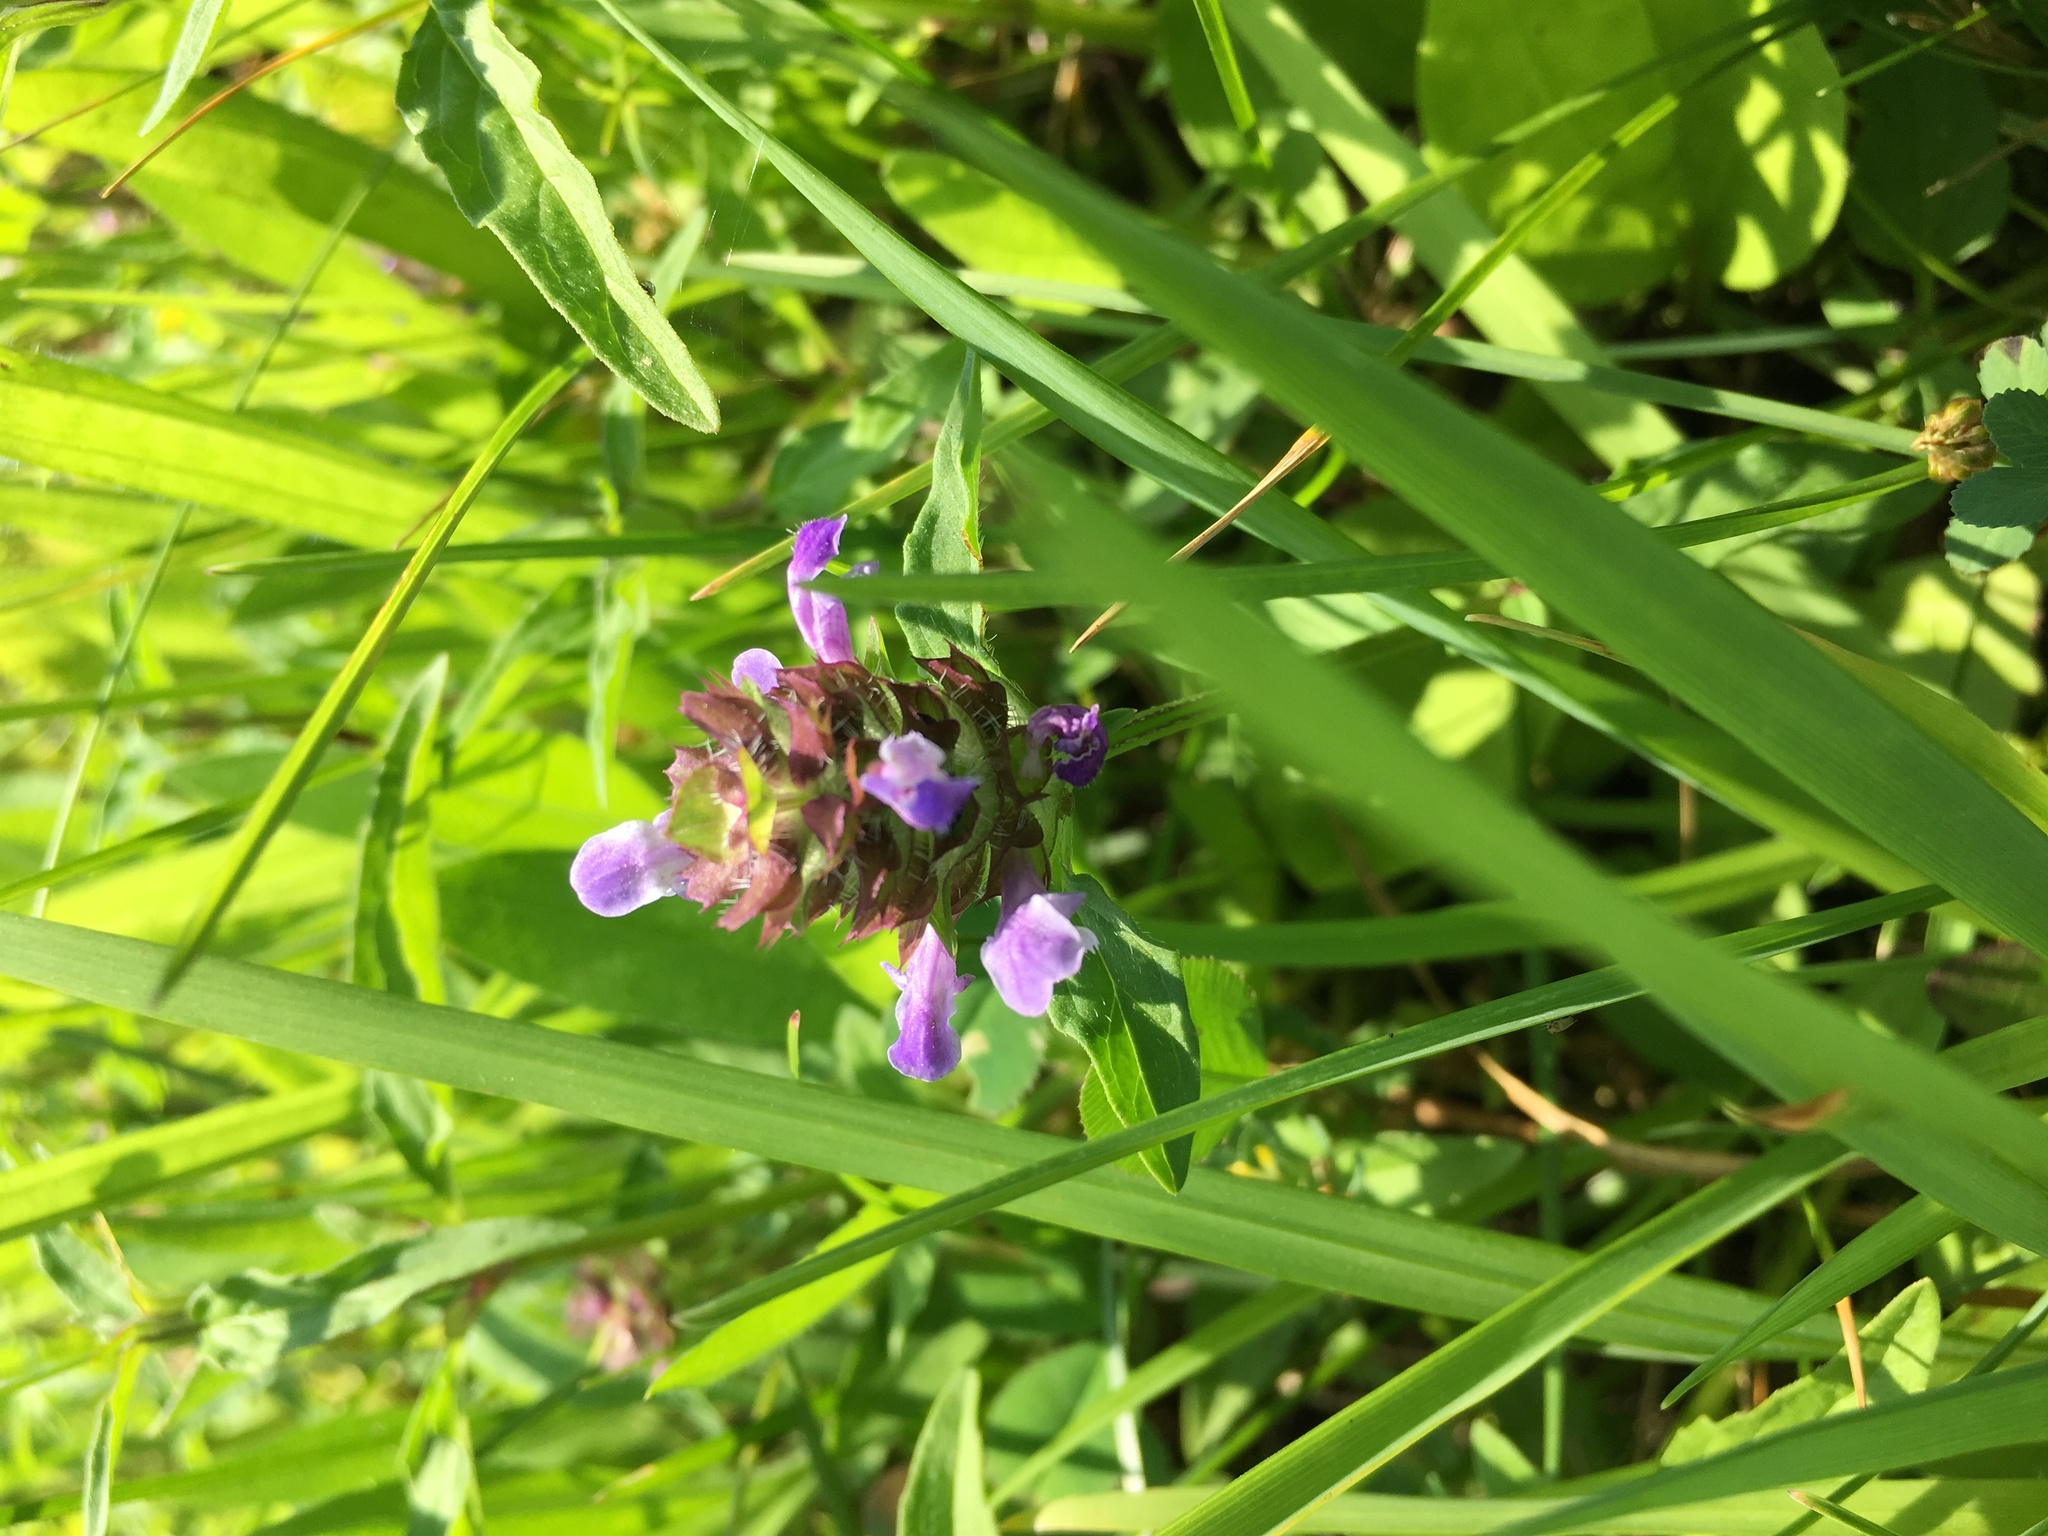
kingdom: Plantae
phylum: Tracheophyta
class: Magnoliopsida
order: Lamiales
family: Lamiaceae
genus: Prunella
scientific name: Prunella vulgaris
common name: Heal-all
